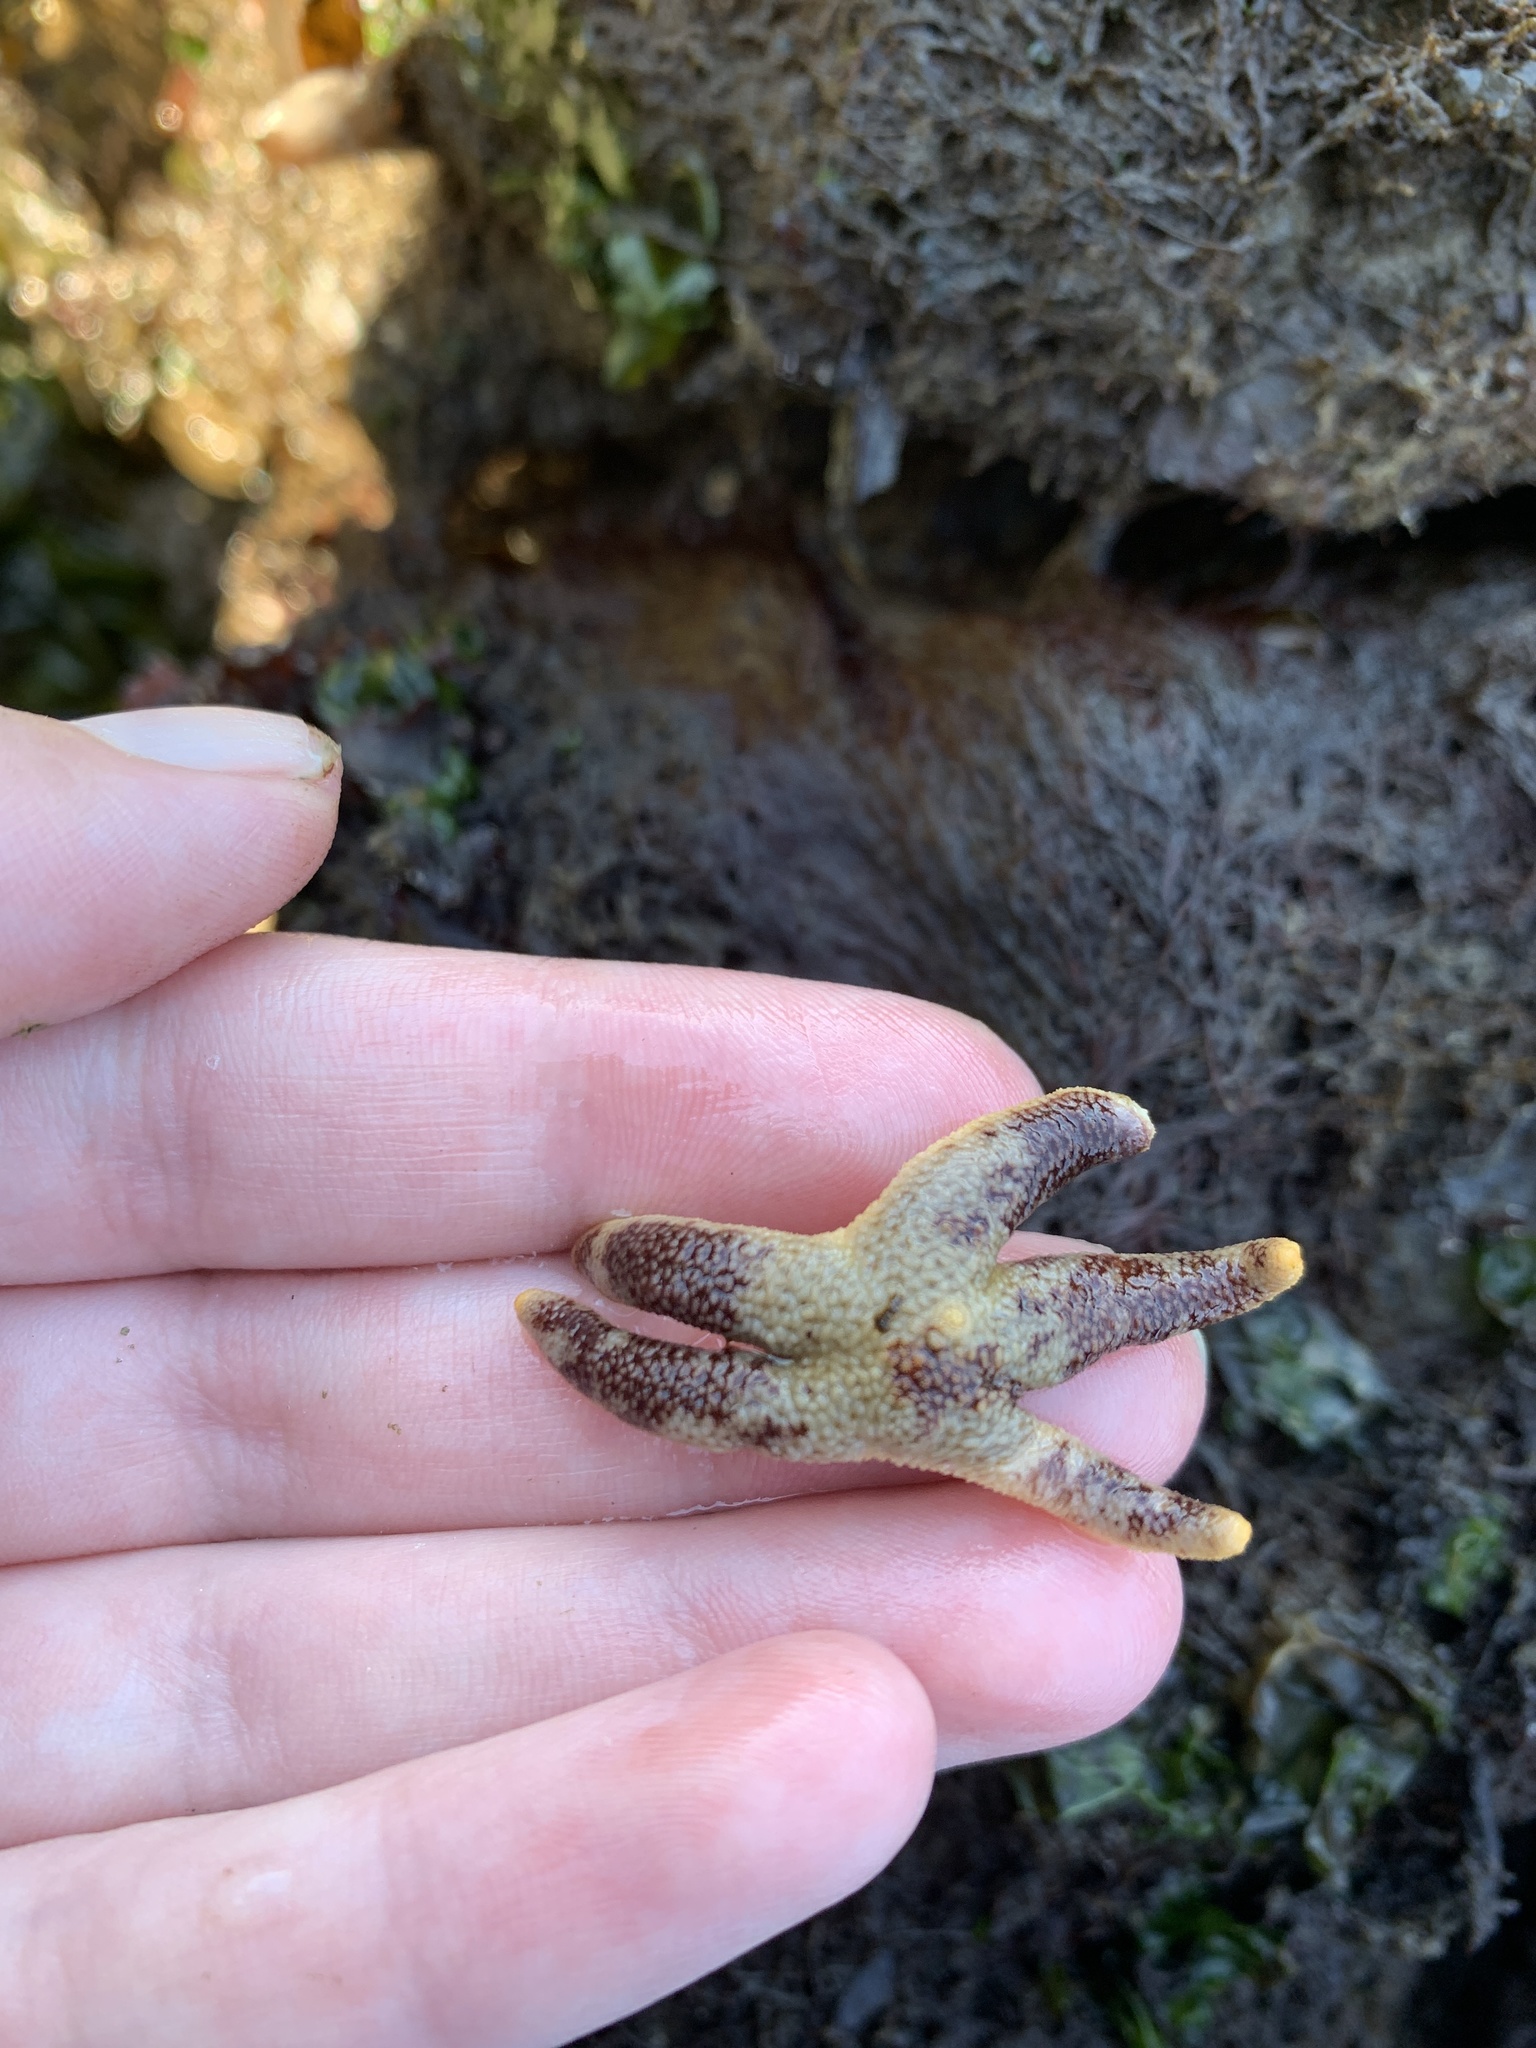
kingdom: Animalia
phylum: Echinodermata
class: Asteroidea
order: Spinulosida
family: Echinasteridae
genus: Henricia
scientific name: Henricia pumila
